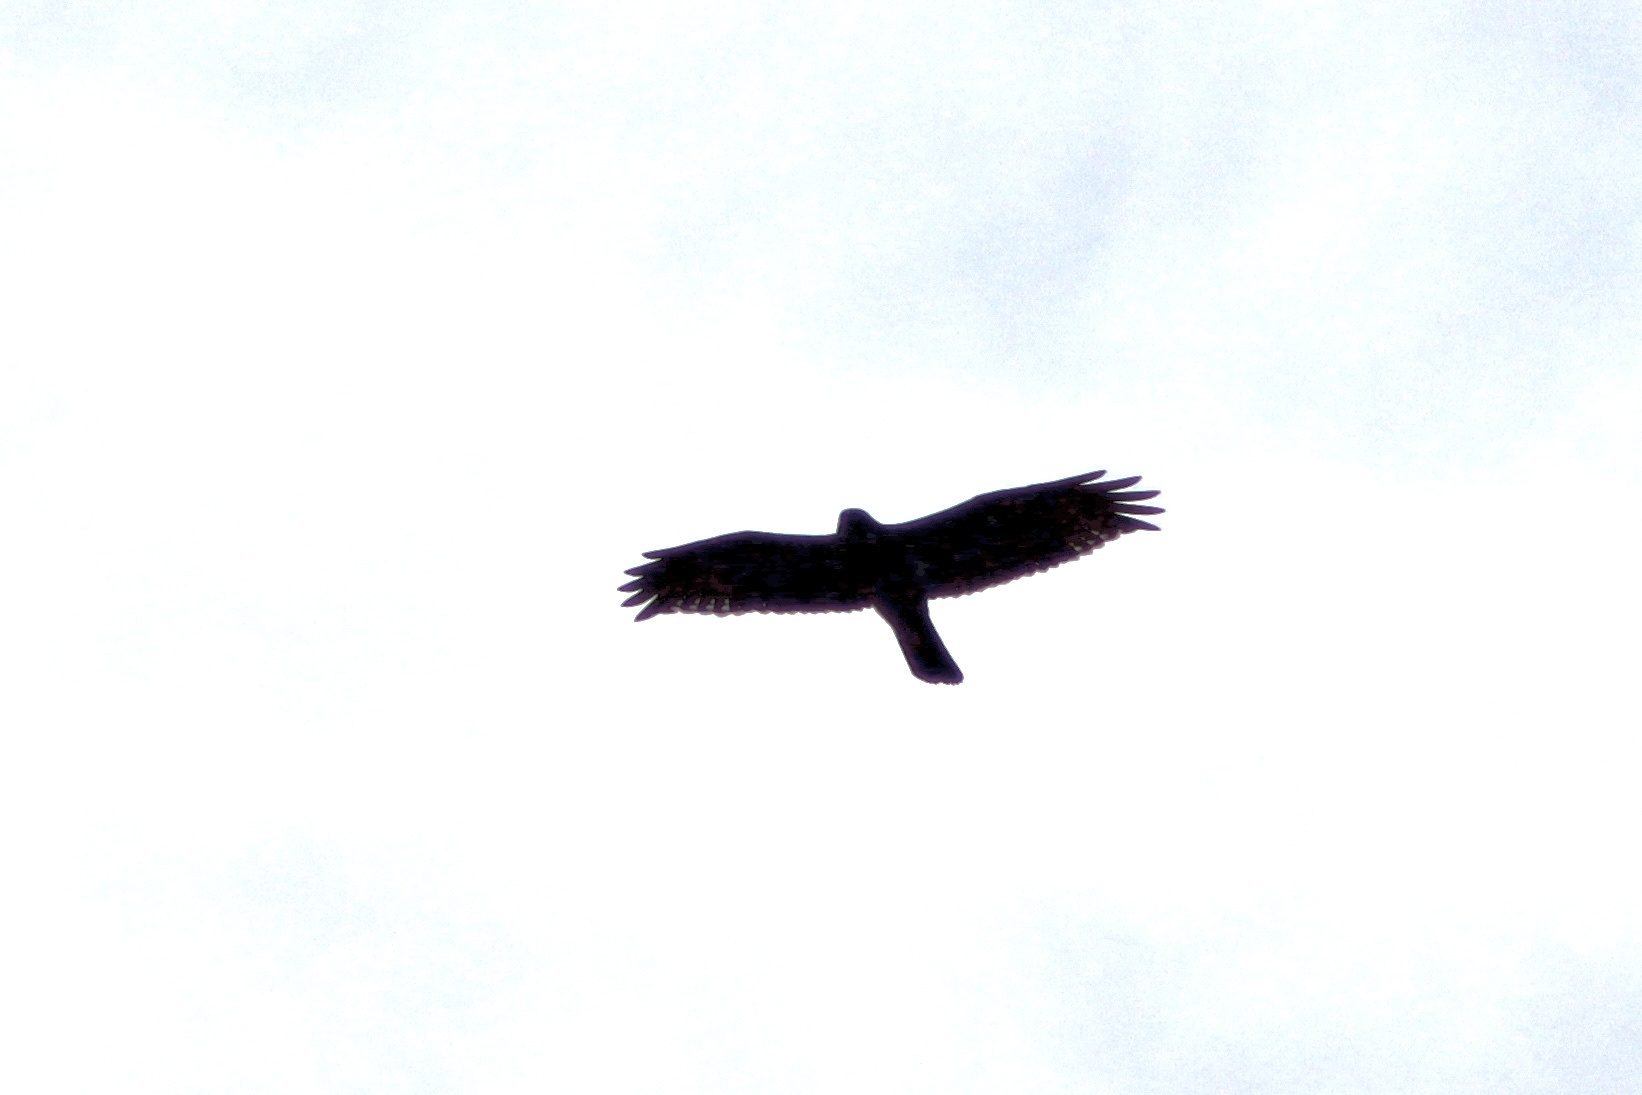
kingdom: Animalia
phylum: Chordata
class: Aves
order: Accipitriformes
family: Accipitridae
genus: Buteo
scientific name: Buteo jamaicensis
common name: Red-tailed hawk
